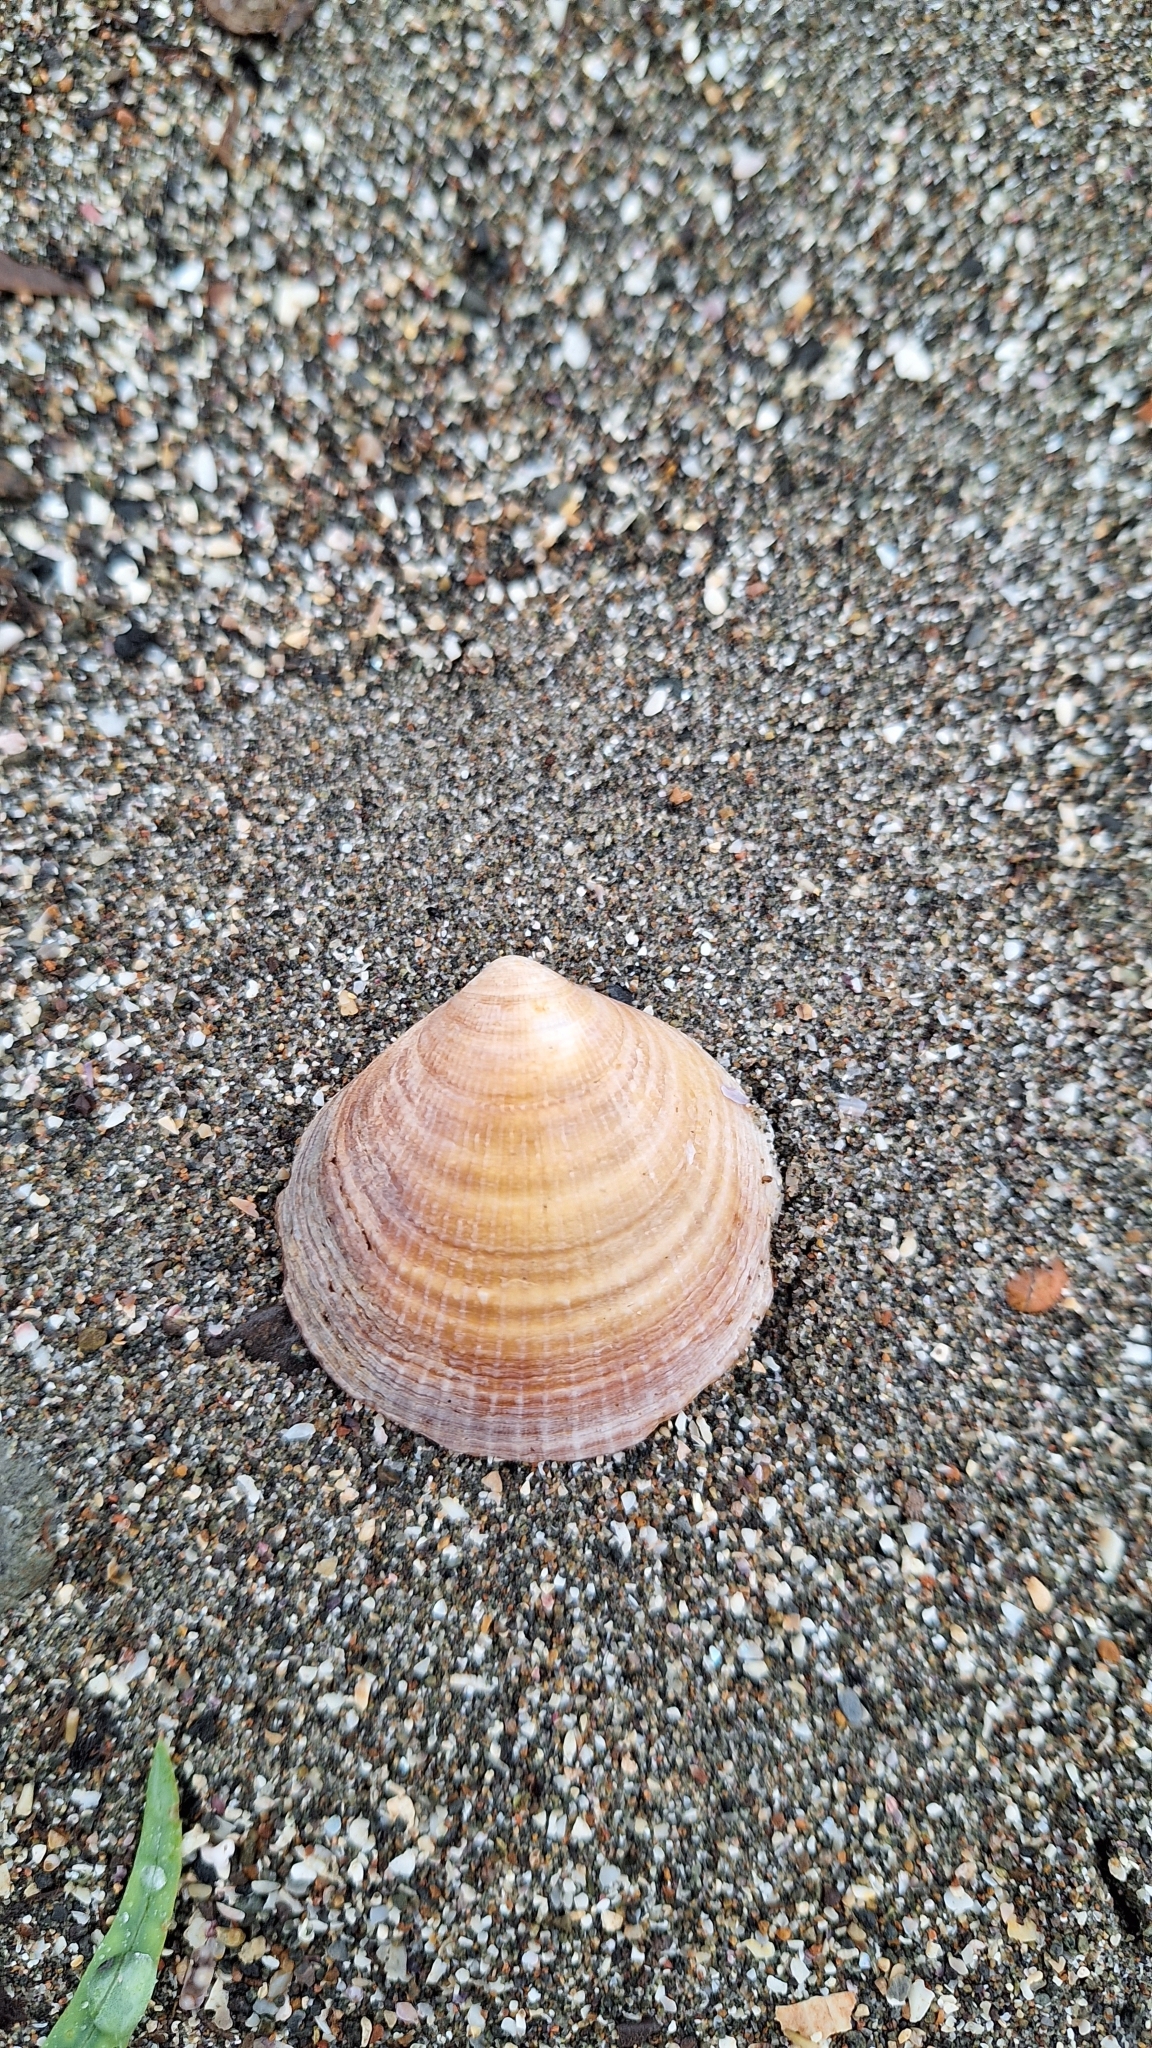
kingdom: Animalia
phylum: Mollusca
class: Bivalvia
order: Arcida
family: Glycymerididae
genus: Glycymeris
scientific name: Glycymeris yessoensis
